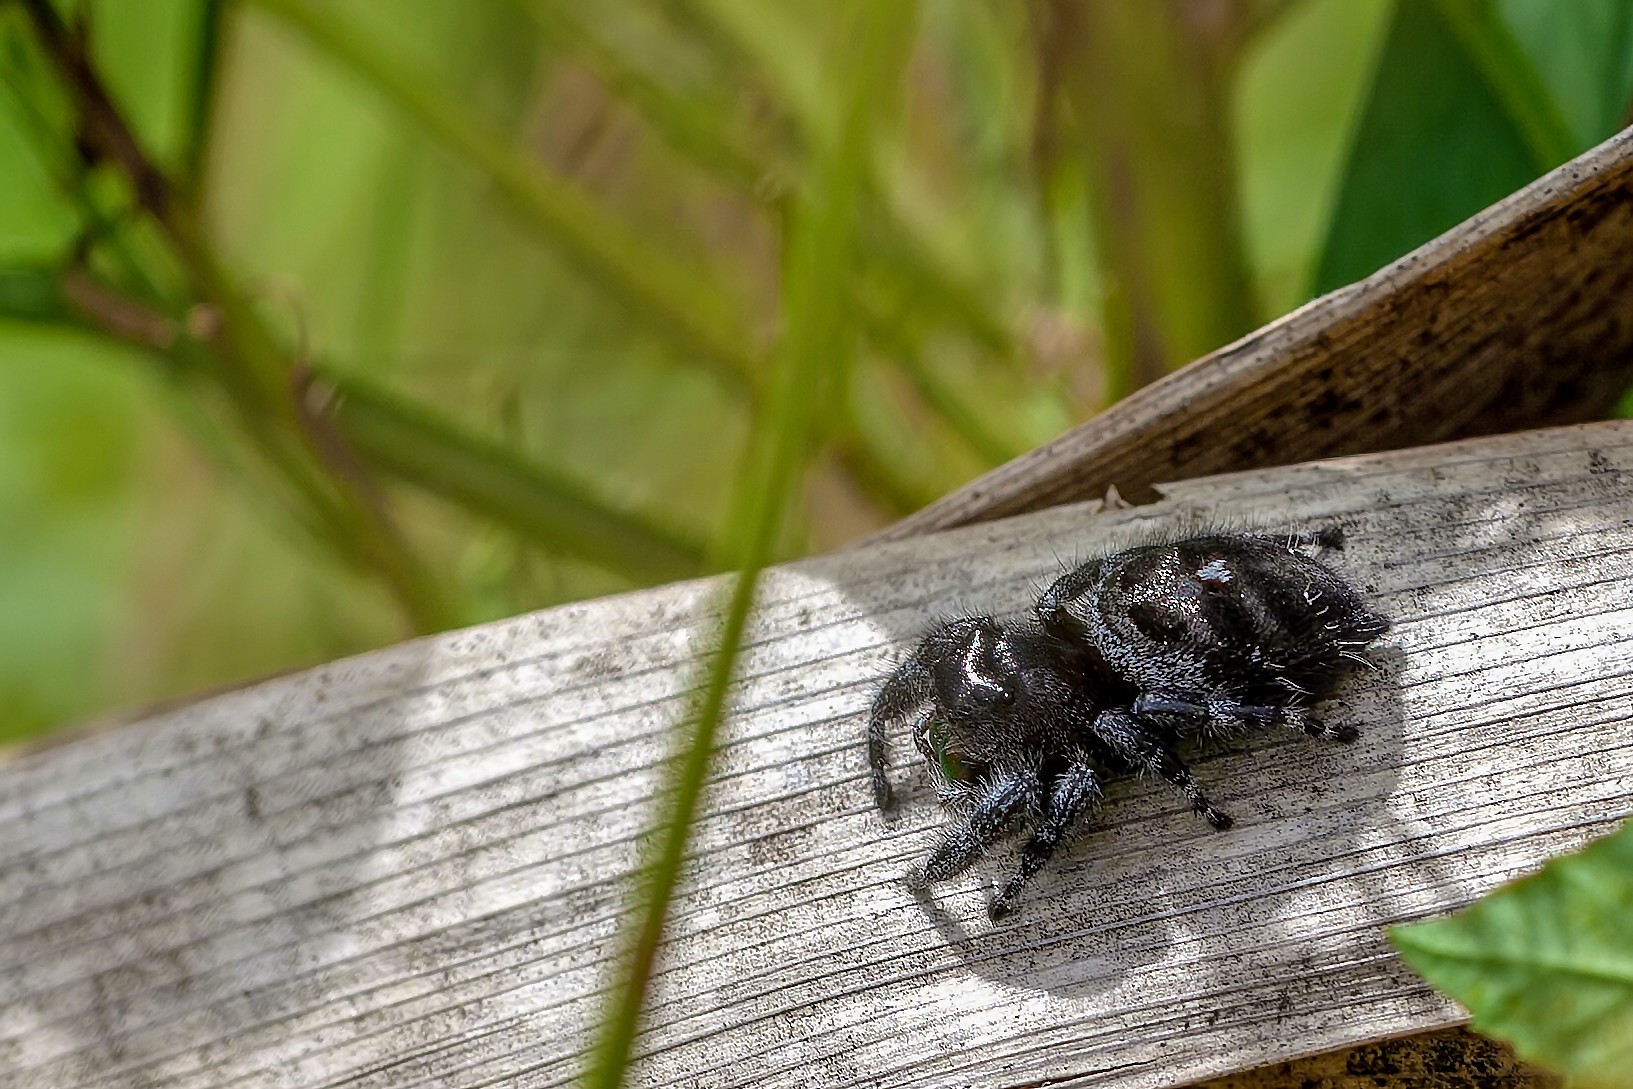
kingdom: Animalia
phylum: Arthropoda
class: Arachnida
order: Araneae
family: Salticidae
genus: Phidippus
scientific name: Phidippus audax
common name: Bold jumper
